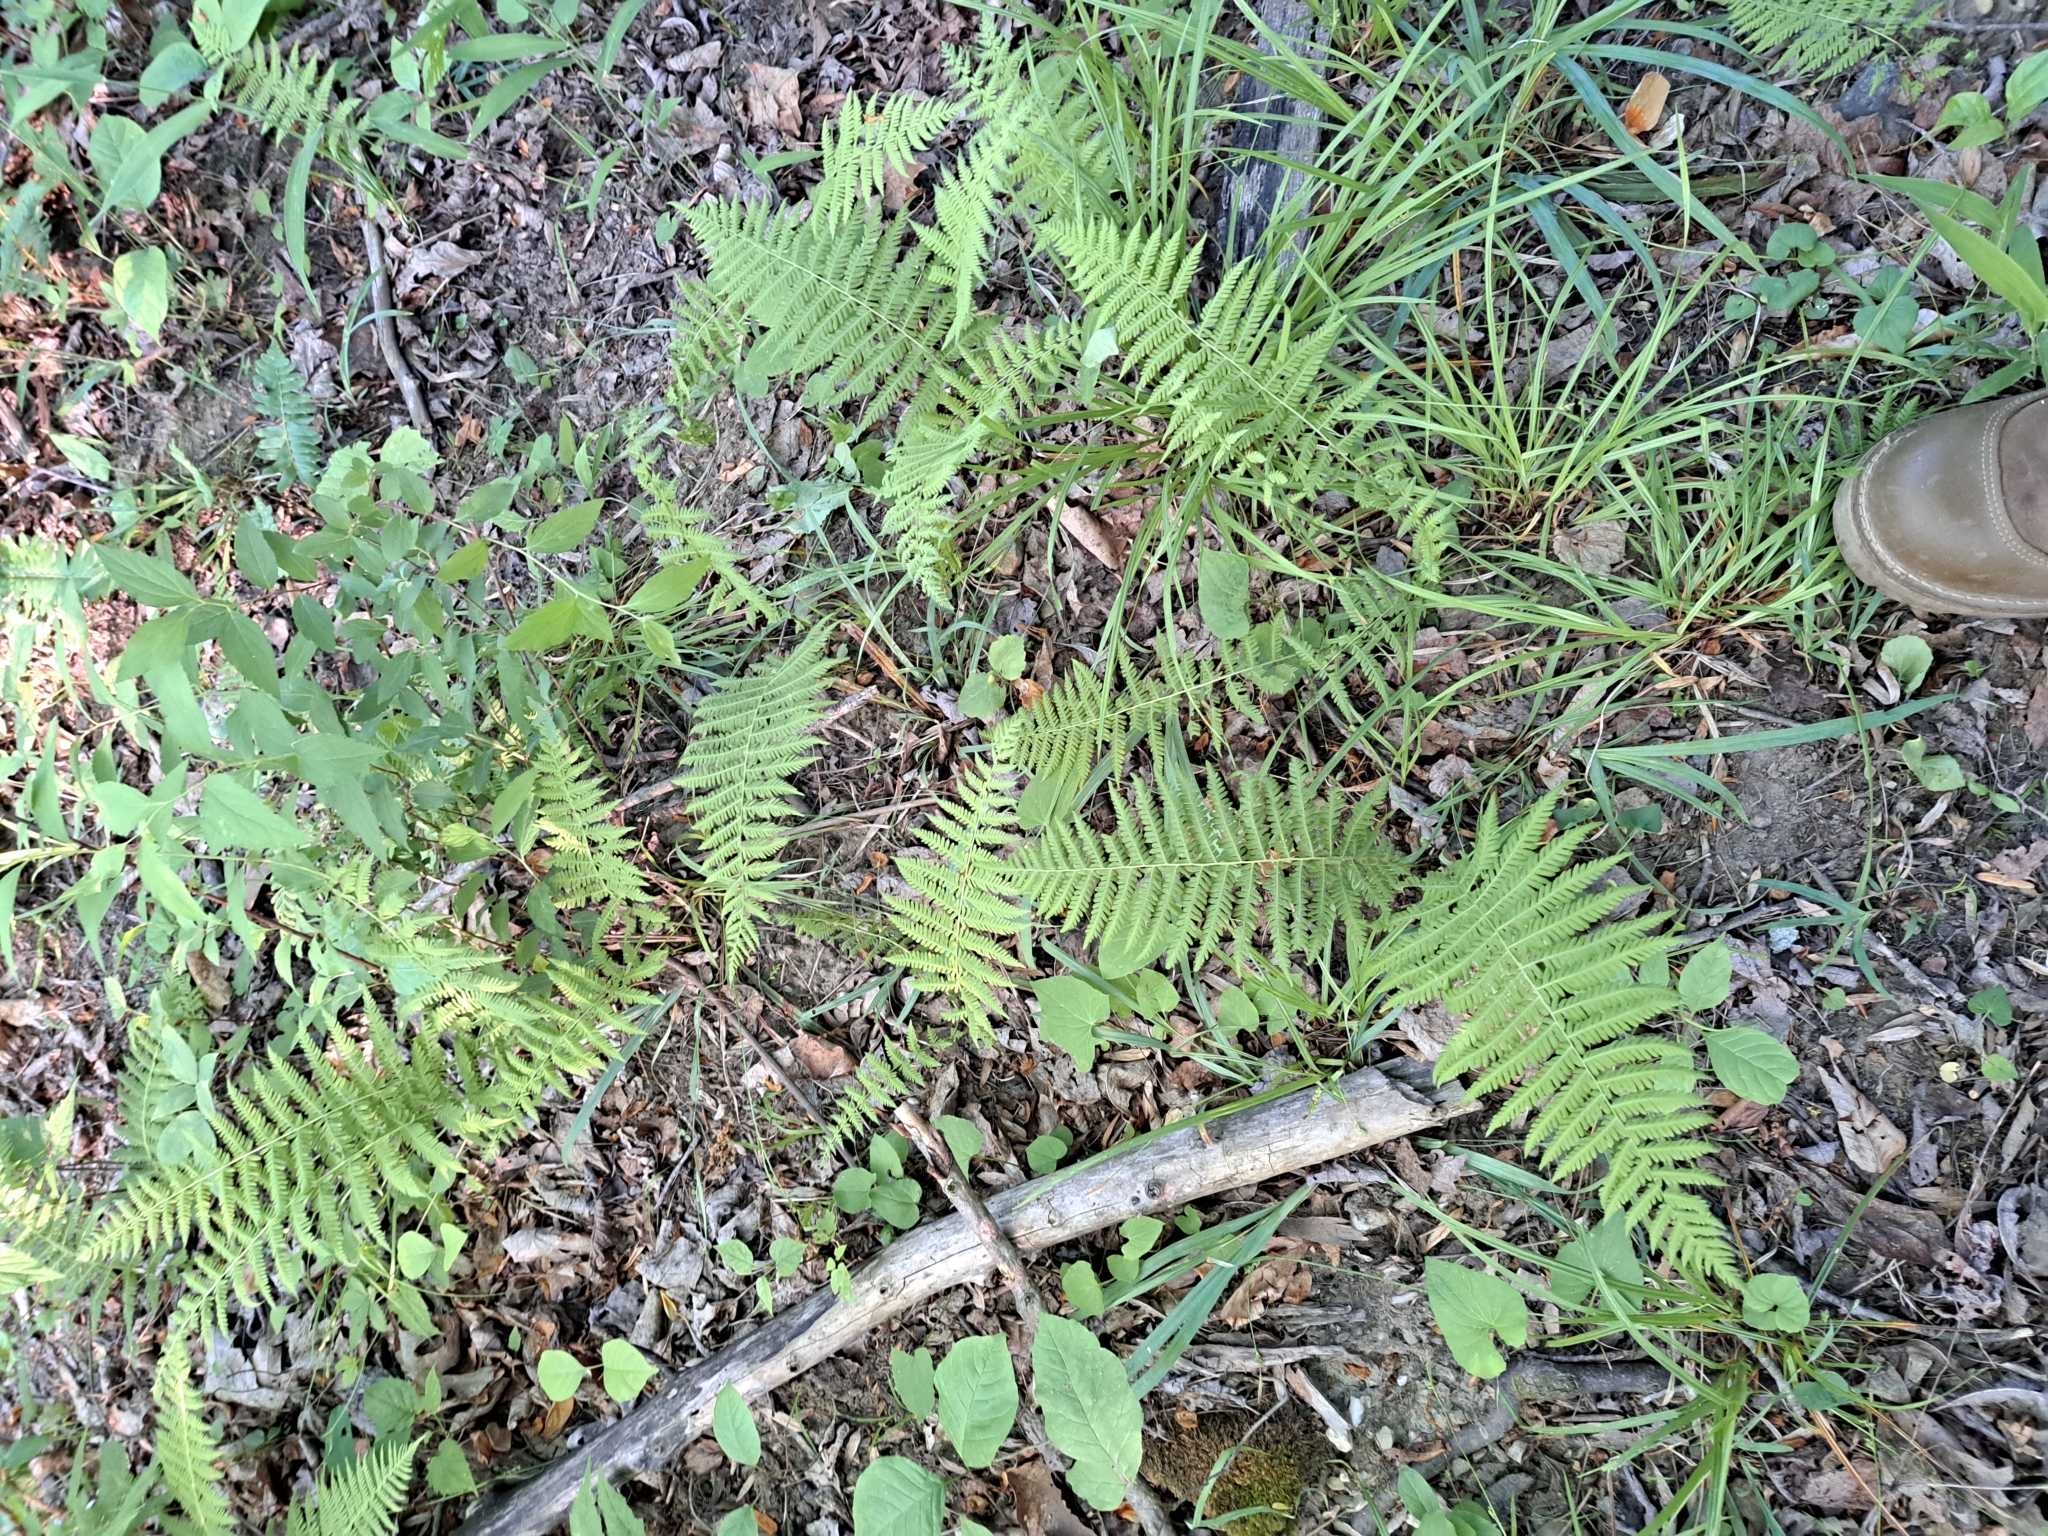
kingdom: Plantae
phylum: Tracheophyta
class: Polypodiopsida
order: Polypodiales
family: Thelypteridaceae
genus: Amauropelta
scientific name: Amauropelta noveboracensis
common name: New york fern
